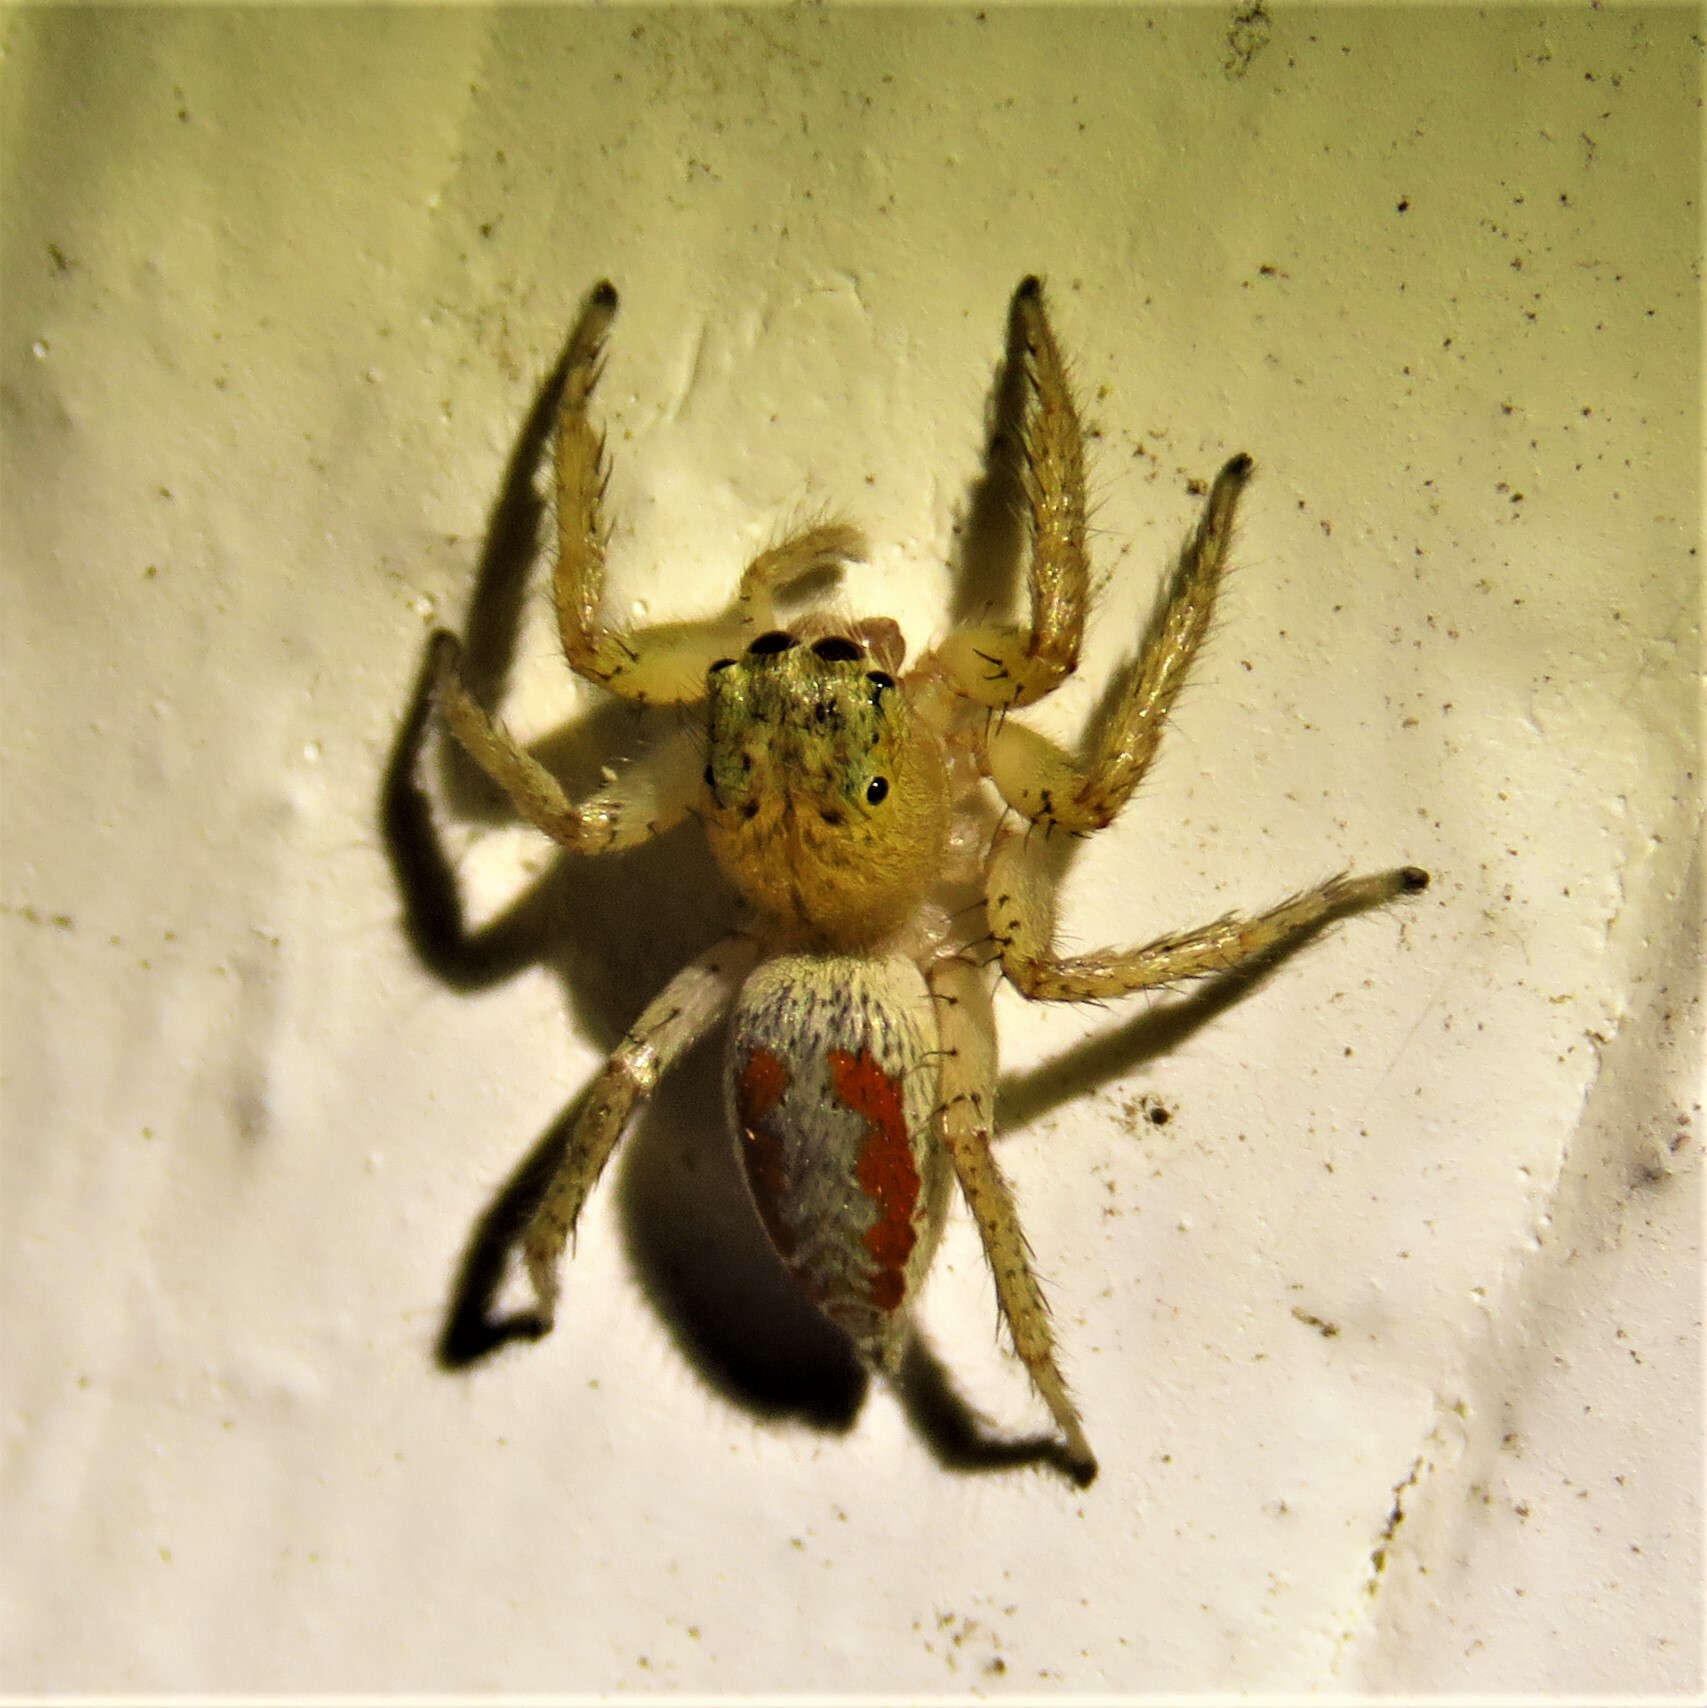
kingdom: Animalia
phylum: Arthropoda
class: Arachnida
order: Araneae
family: Salticidae
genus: Maevia
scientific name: Maevia inclemens
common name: Dimorphic jumper
